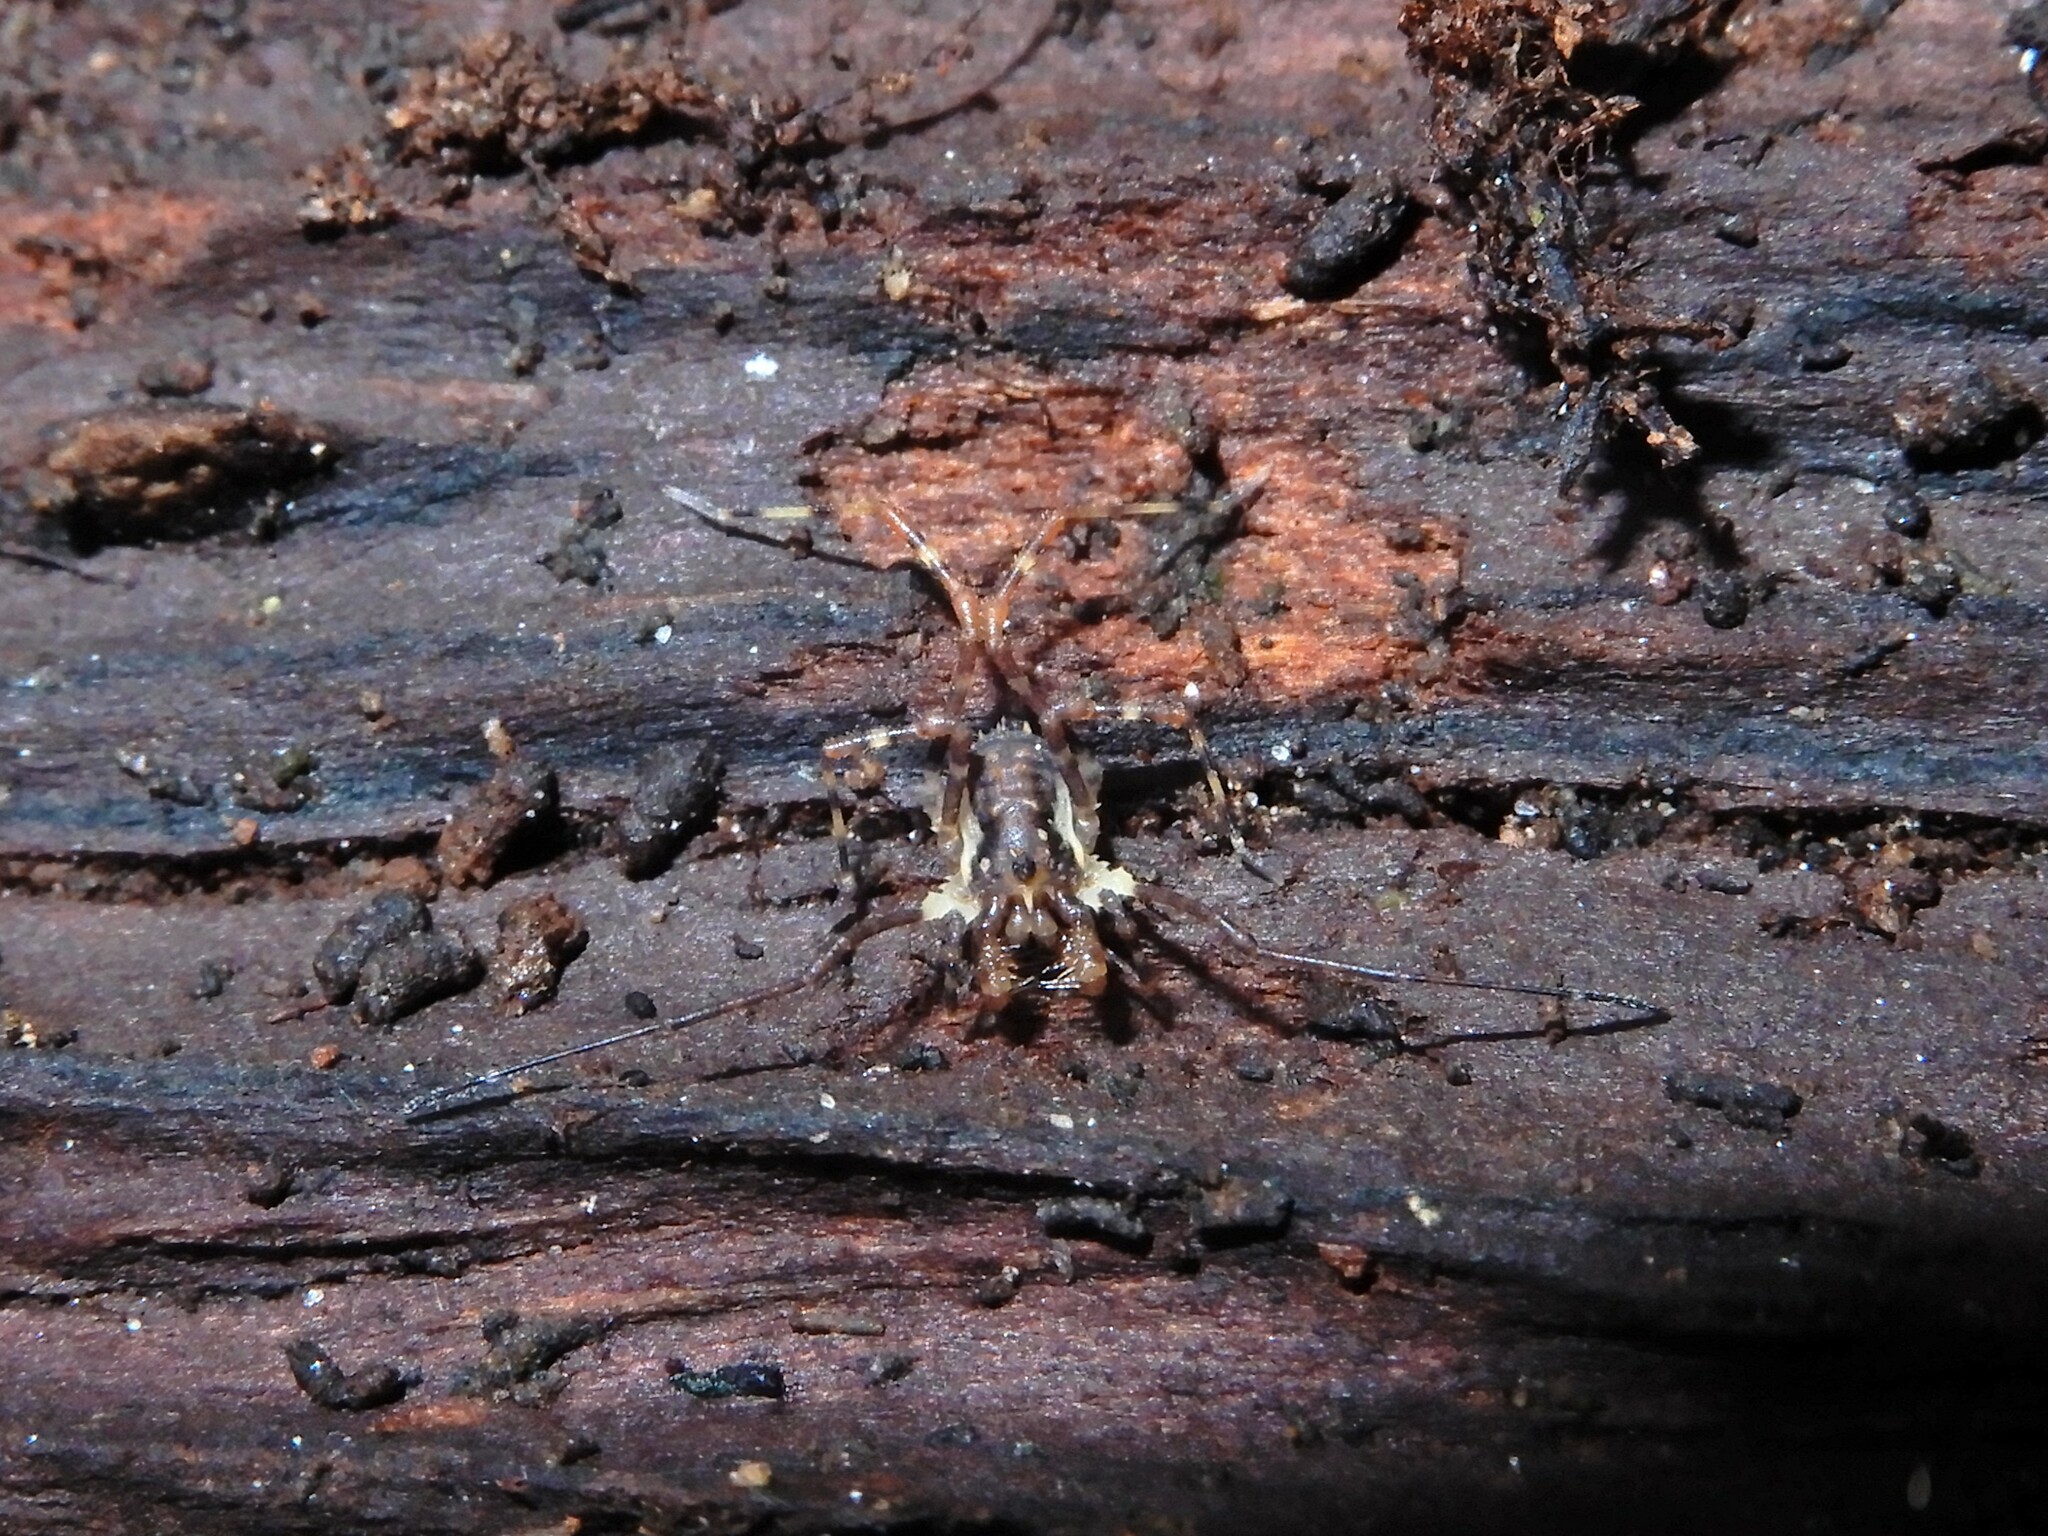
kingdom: Animalia
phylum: Arthropoda
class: Arachnida
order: Opiliones
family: Triaenonychidae
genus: Algidia
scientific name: Algidia chiltoni
